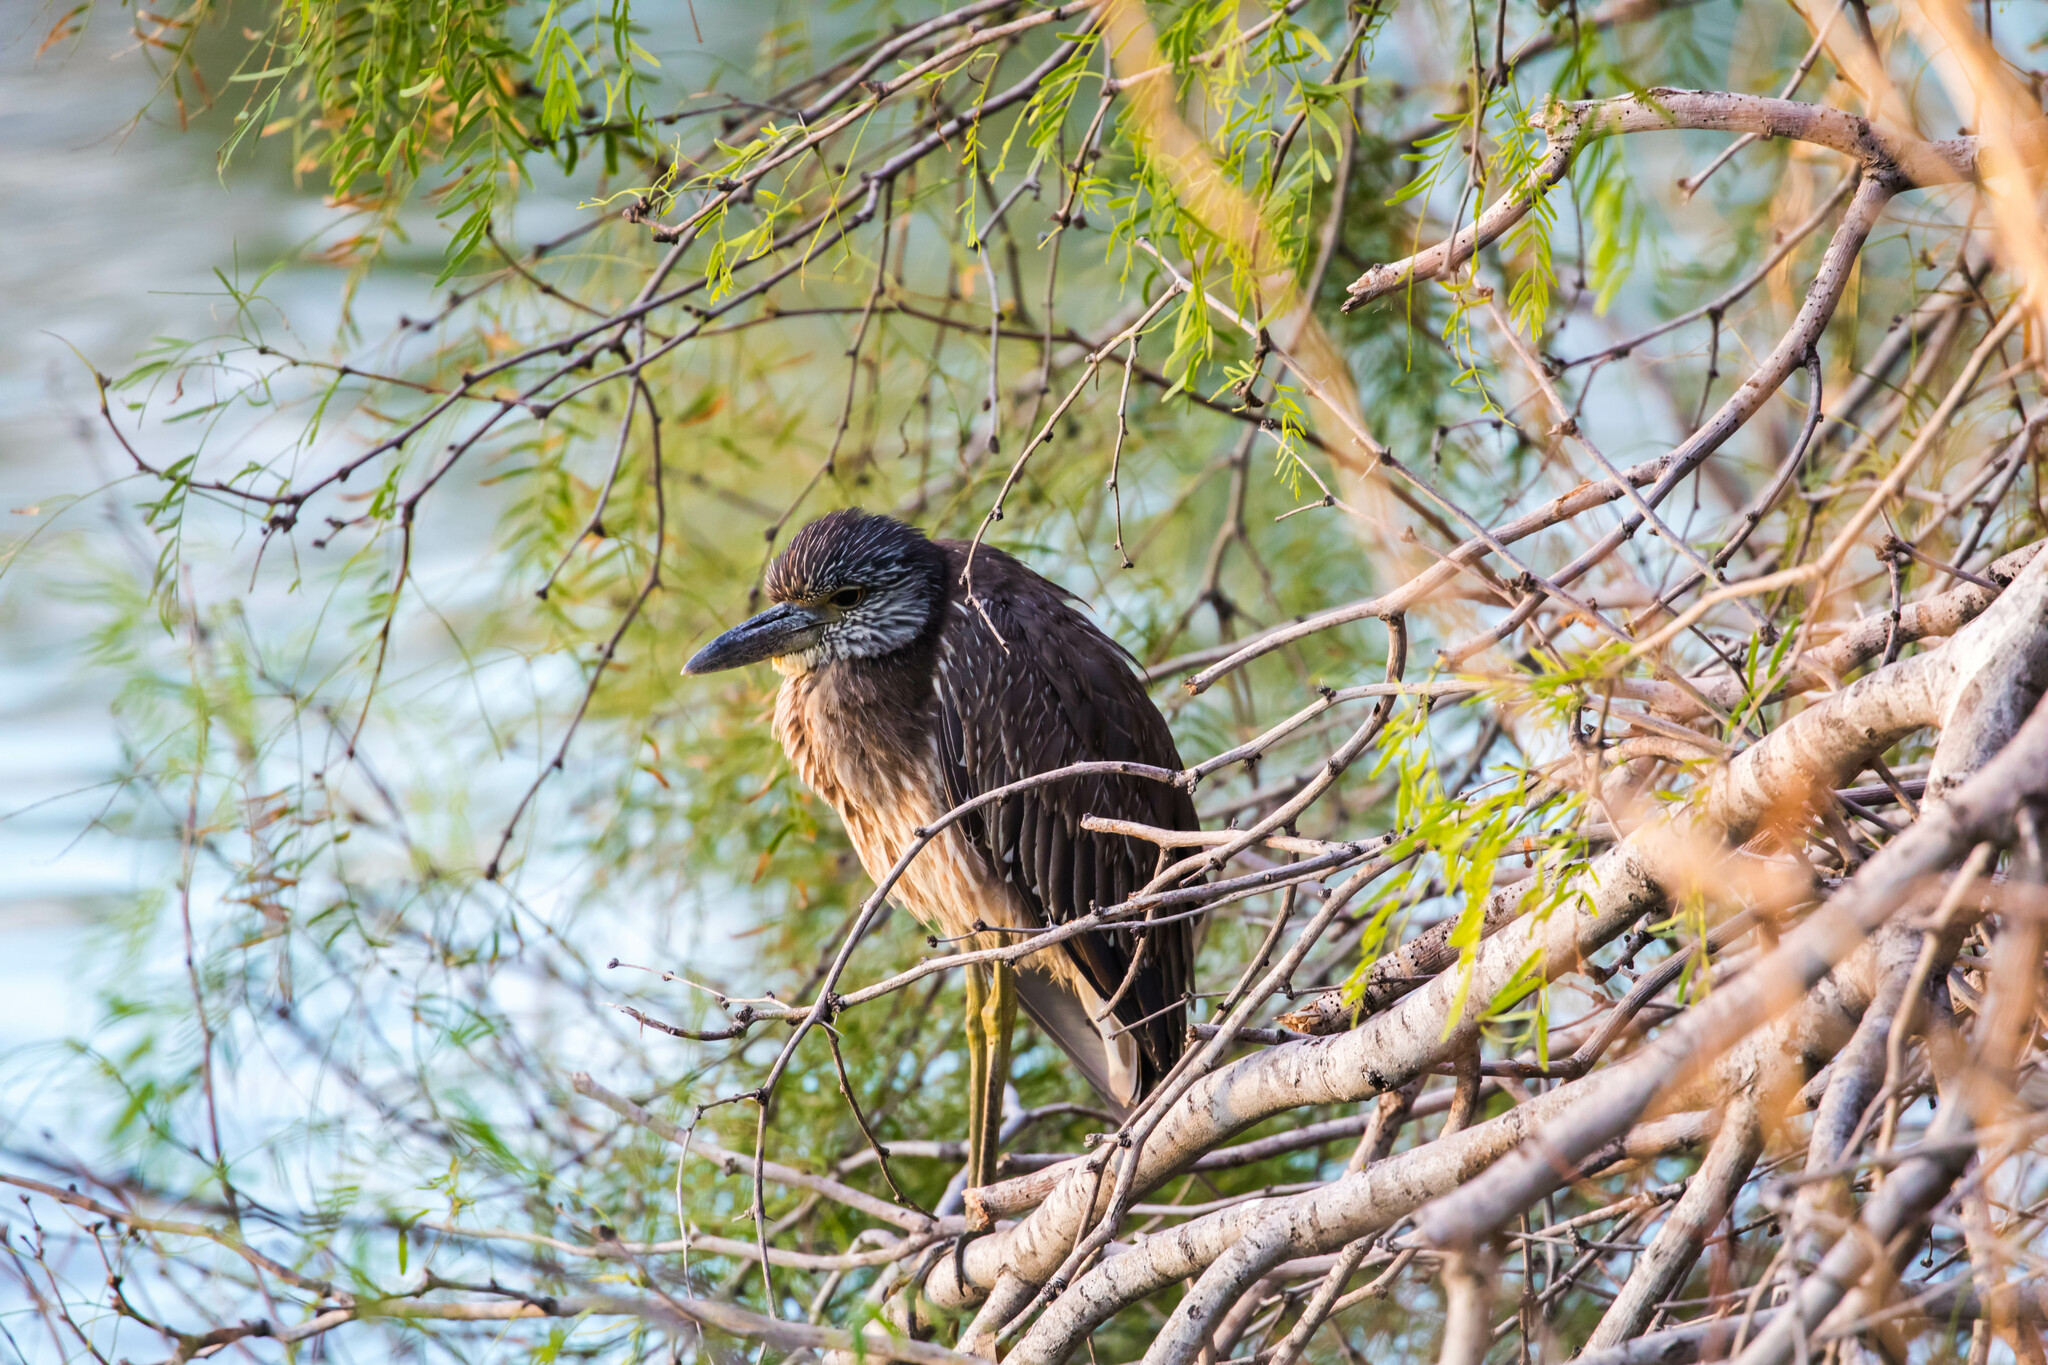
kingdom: Animalia
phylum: Chordata
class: Aves
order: Pelecaniformes
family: Ardeidae
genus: Nyctanassa
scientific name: Nyctanassa violacea
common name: Yellow-crowned night heron
